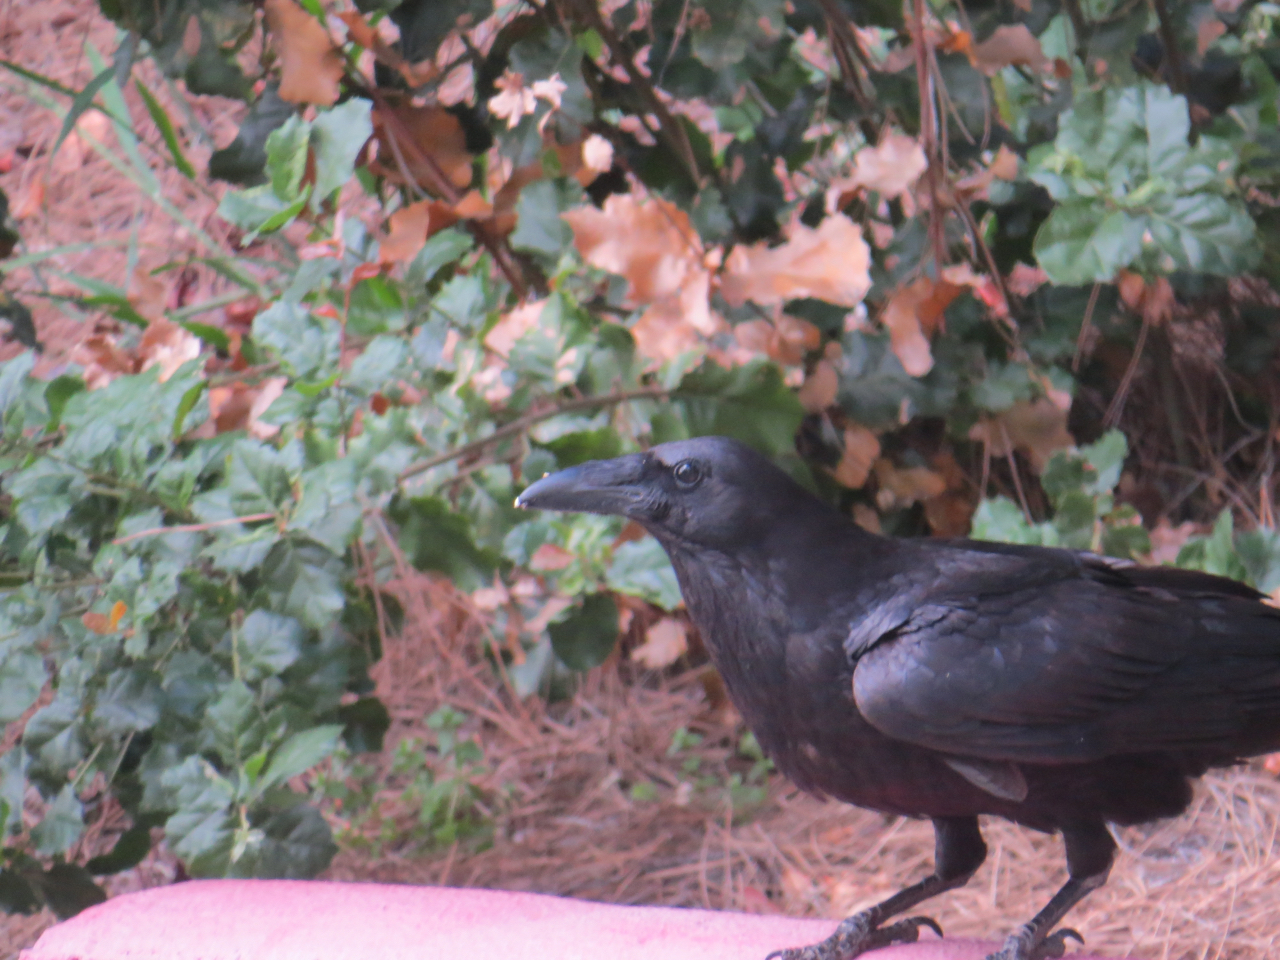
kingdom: Animalia
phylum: Chordata
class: Aves
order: Passeriformes
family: Corvidae
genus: Corvus
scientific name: Corvus corax
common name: Common raven
